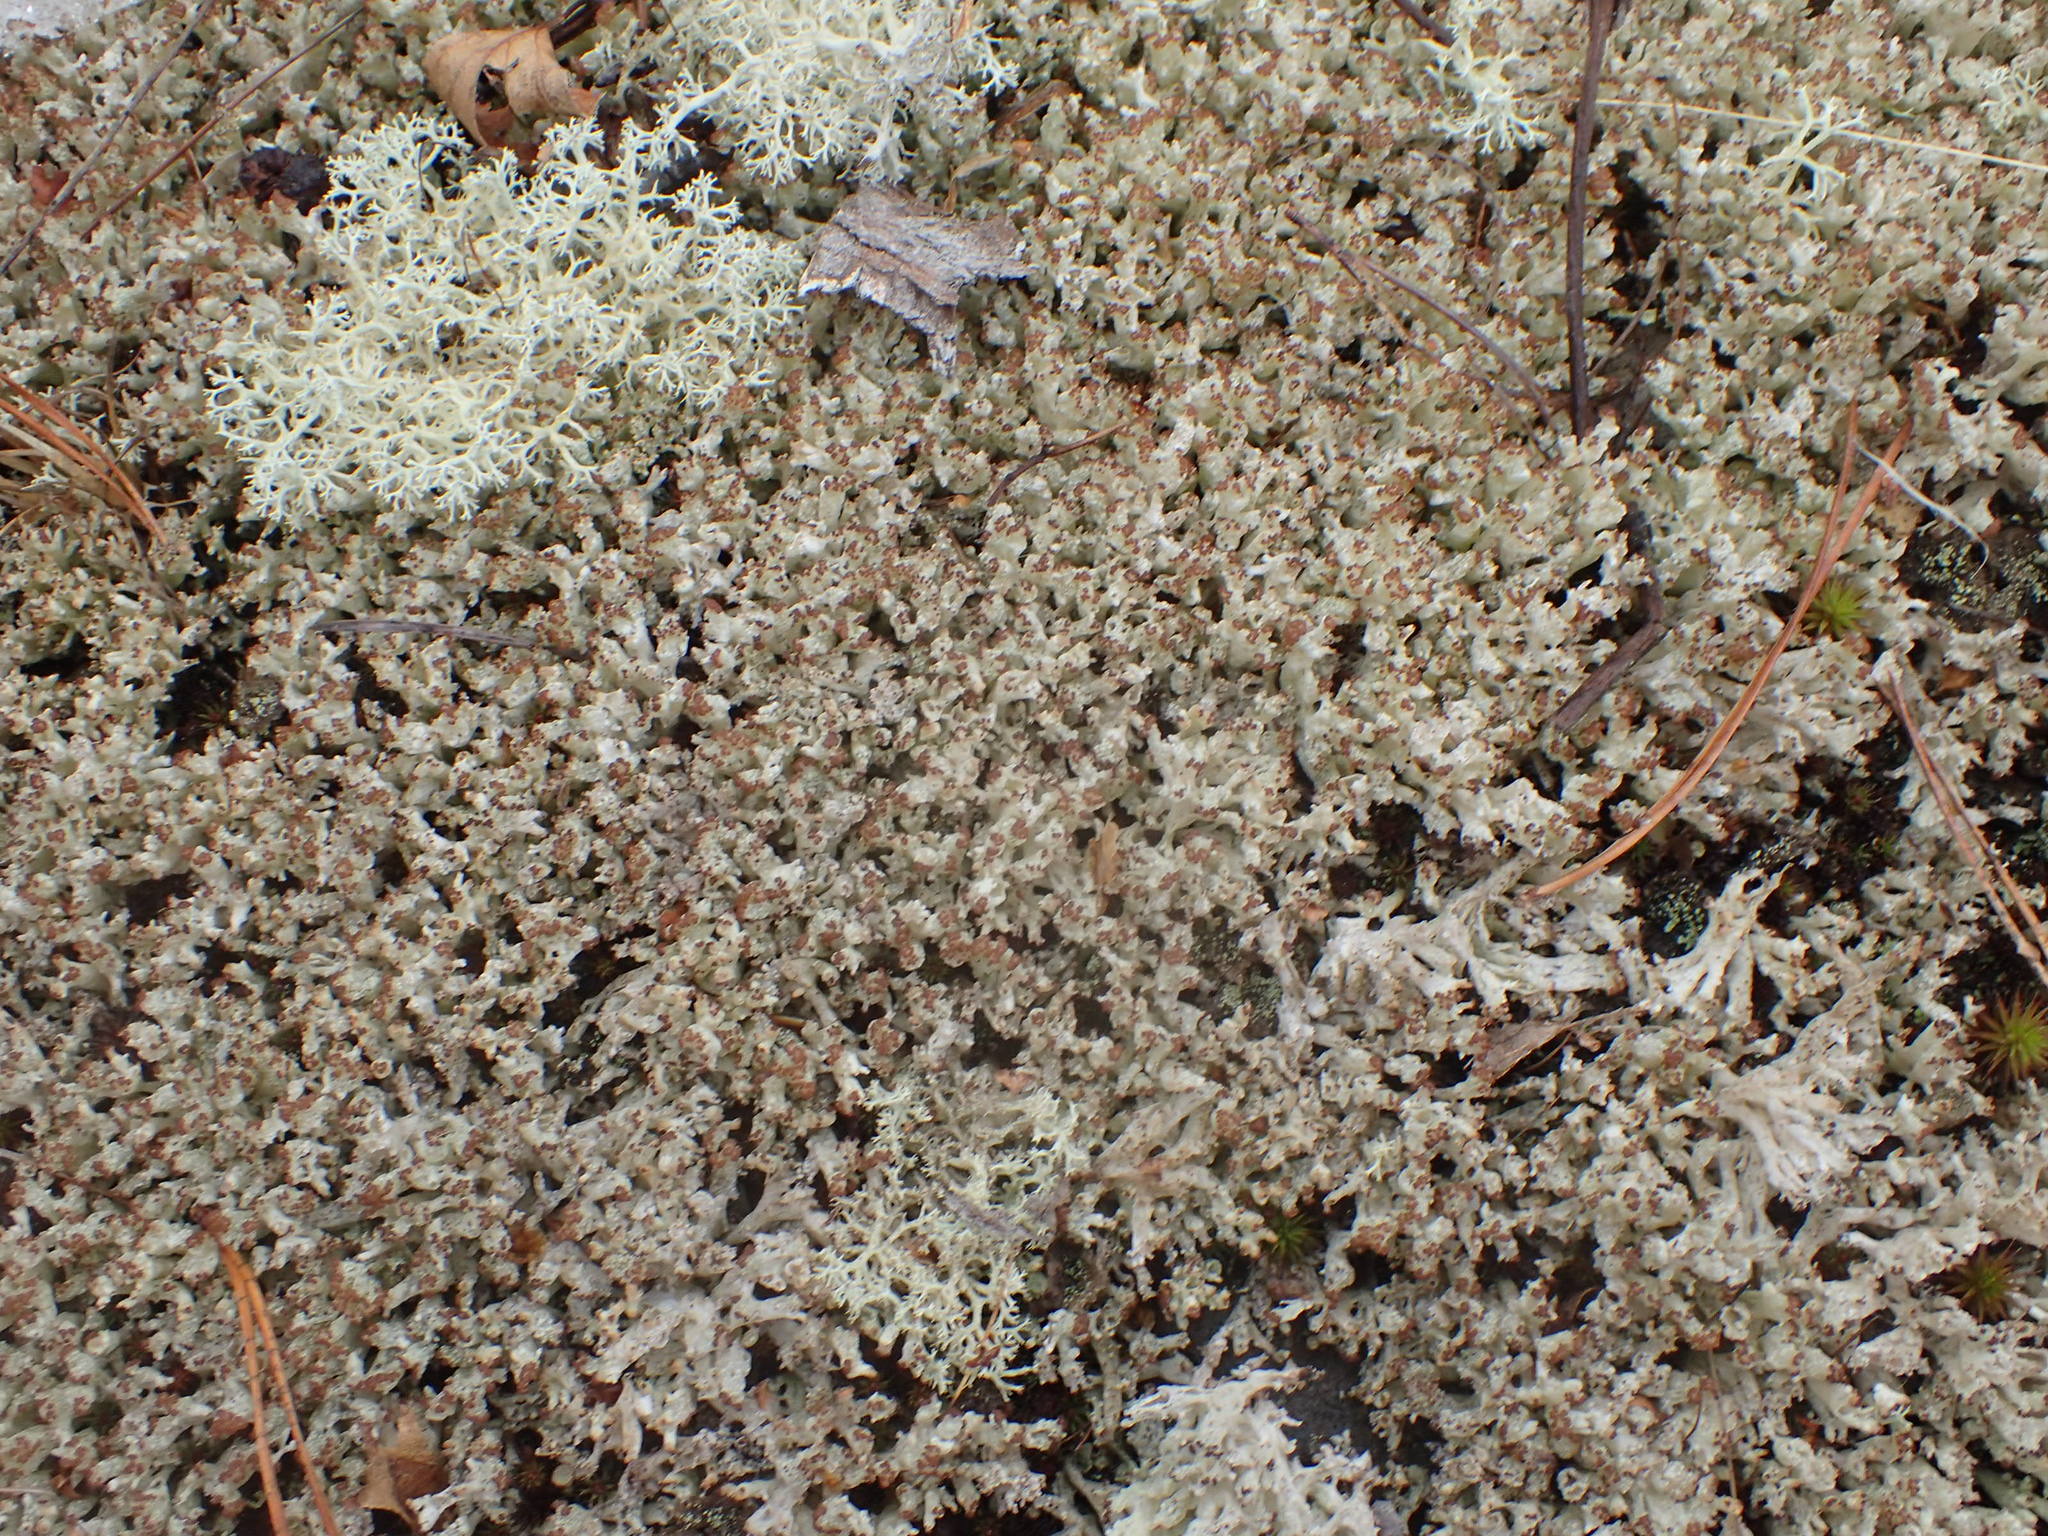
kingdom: Fungi
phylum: Ascomycota
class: Lecanoromycetes
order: Lecanorales
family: Cladoniaceae
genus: Pycnothelia
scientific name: Pycnothelia papillaria
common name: Nipple lichen
